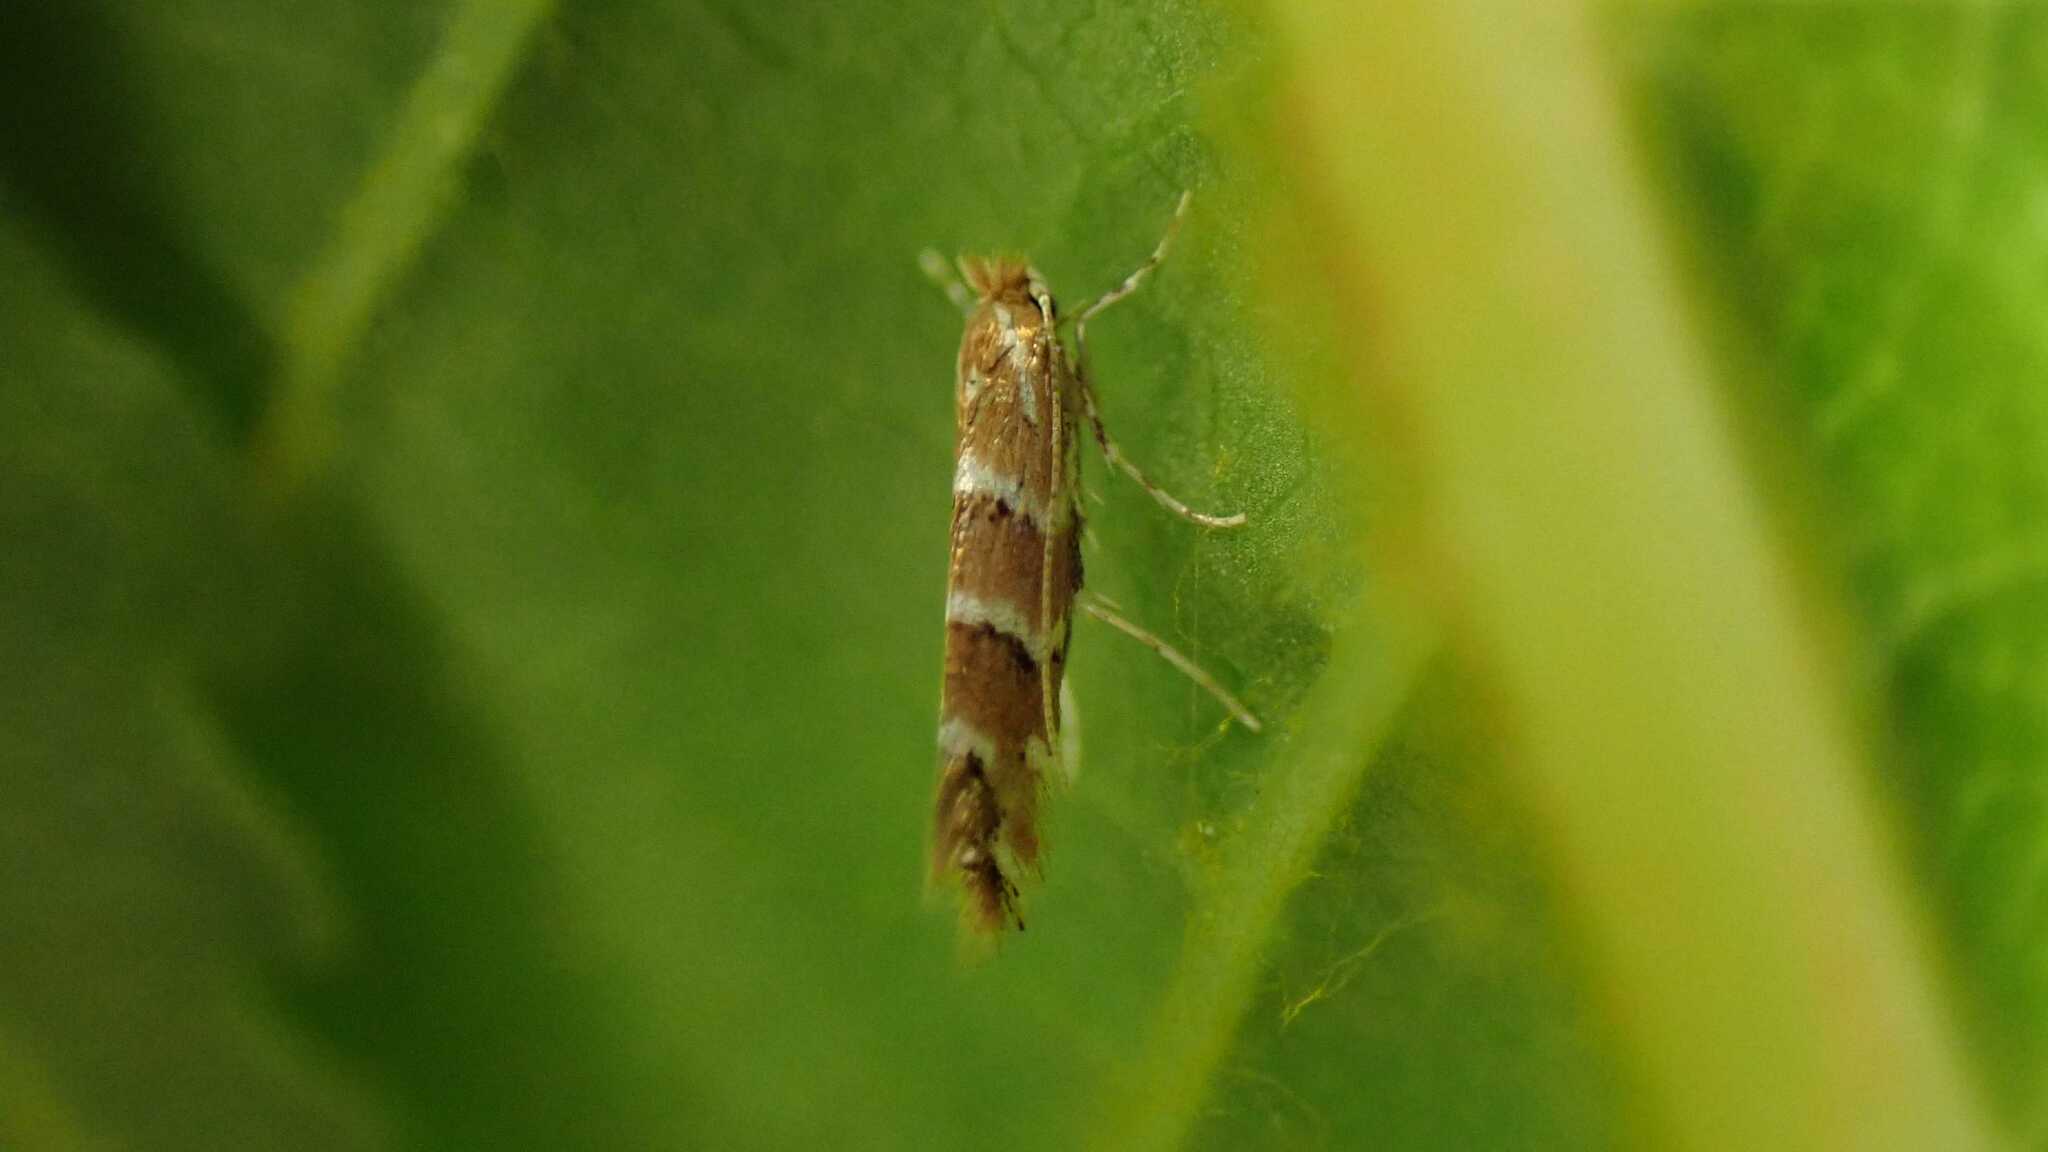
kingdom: Animalia
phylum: Arthropoda
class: Insecta
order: Lepidoptera
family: Gracillariidae
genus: Cameraria
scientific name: Cameraria ohridella
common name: Horse-chestnut leaf-miner
